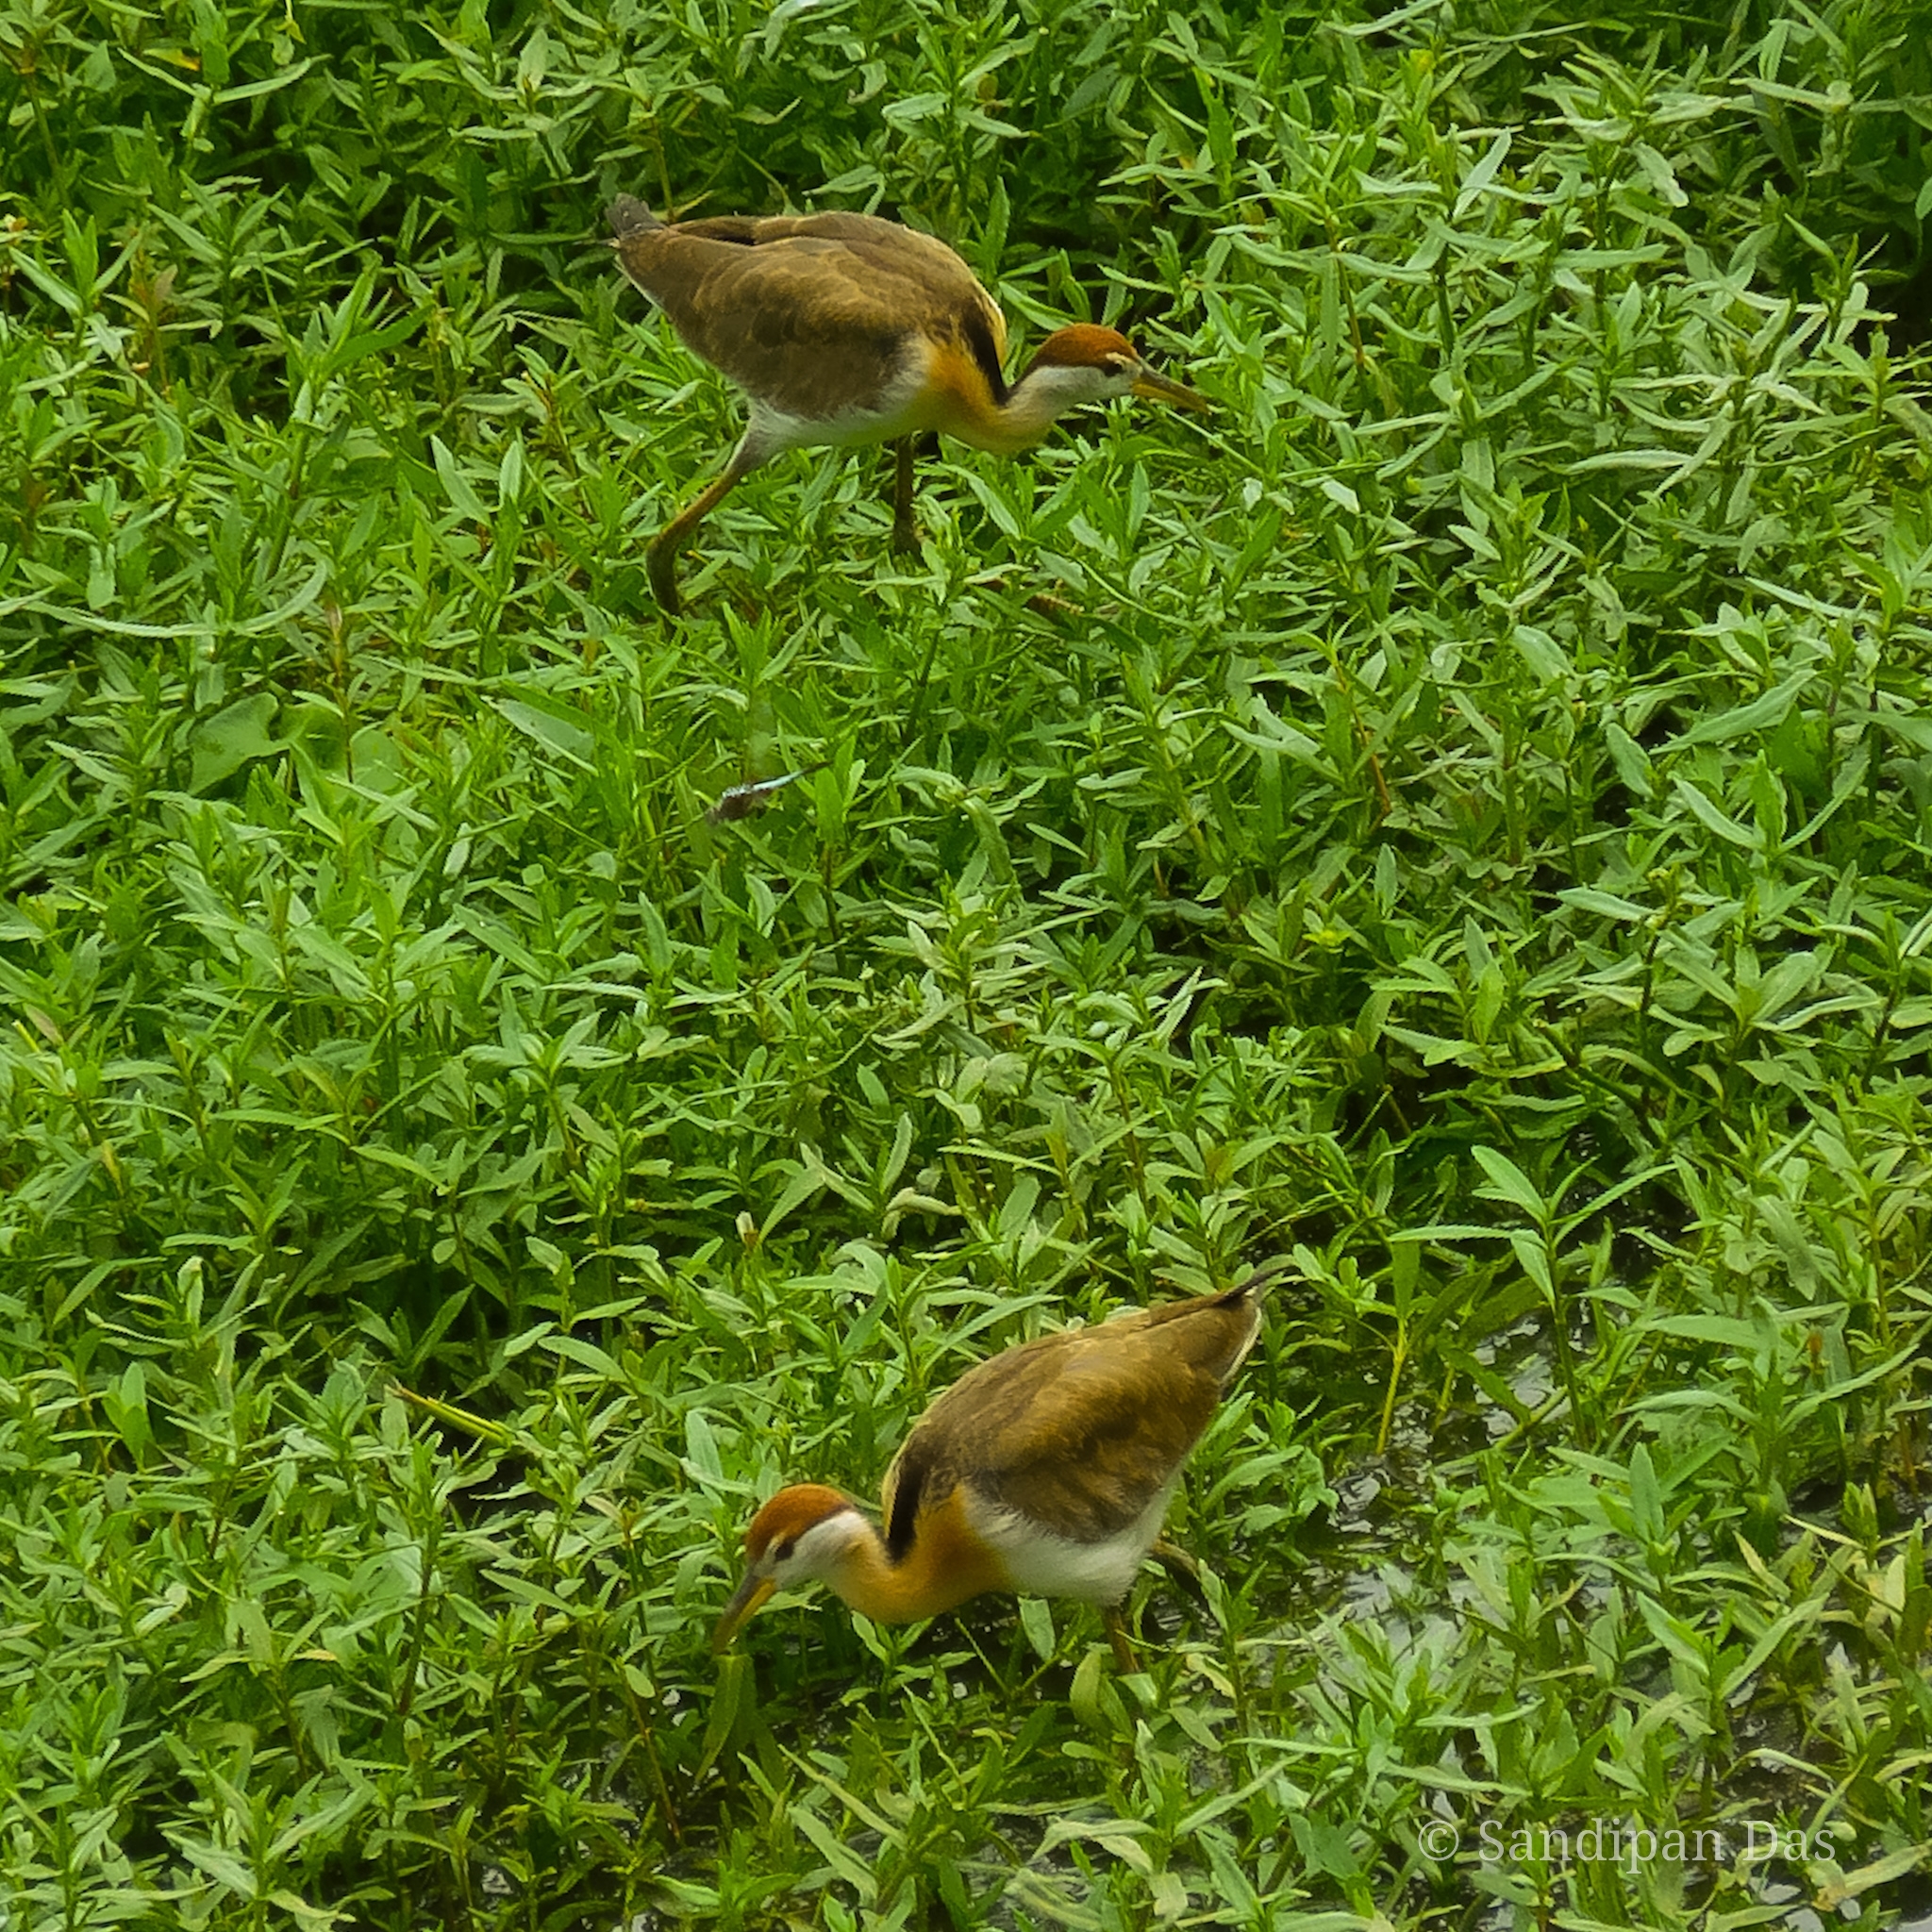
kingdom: Animalia
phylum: Chordata
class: Aves
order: Charadriiformes
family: Jacanidae
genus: Metopidius
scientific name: Metopidius indicus
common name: Bronze-winged jacana
